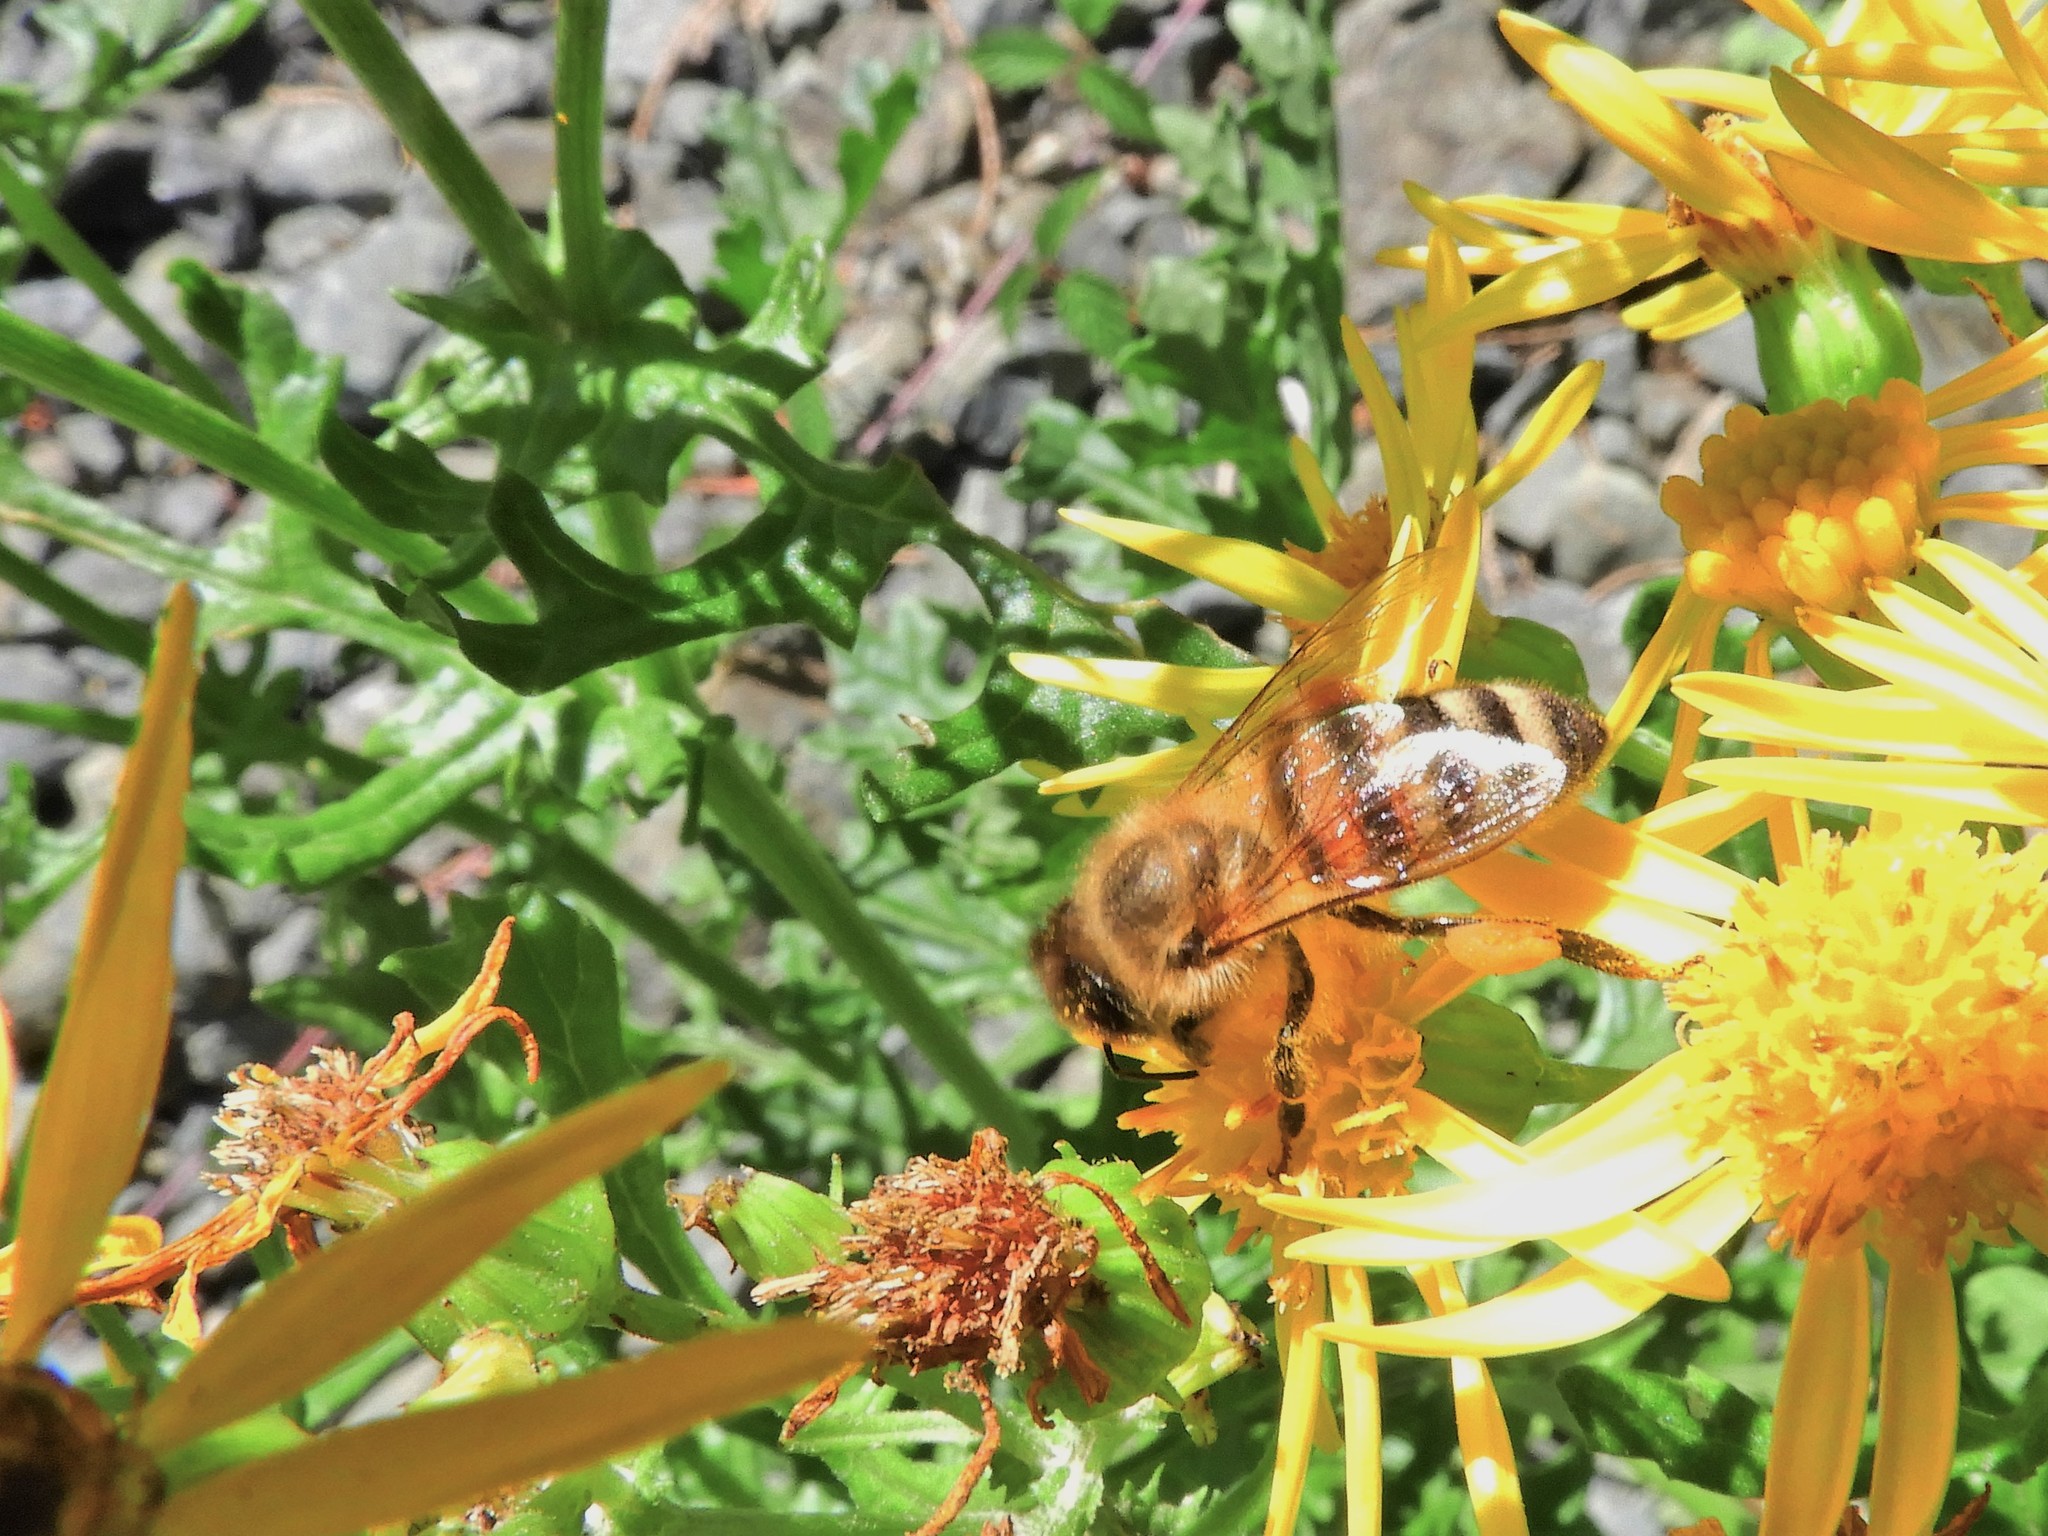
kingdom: Animalia
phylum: Arthropoda
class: Insecta
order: Hymenoptera
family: Apidae
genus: Apis
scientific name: Apis mellifera
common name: Honey bee
